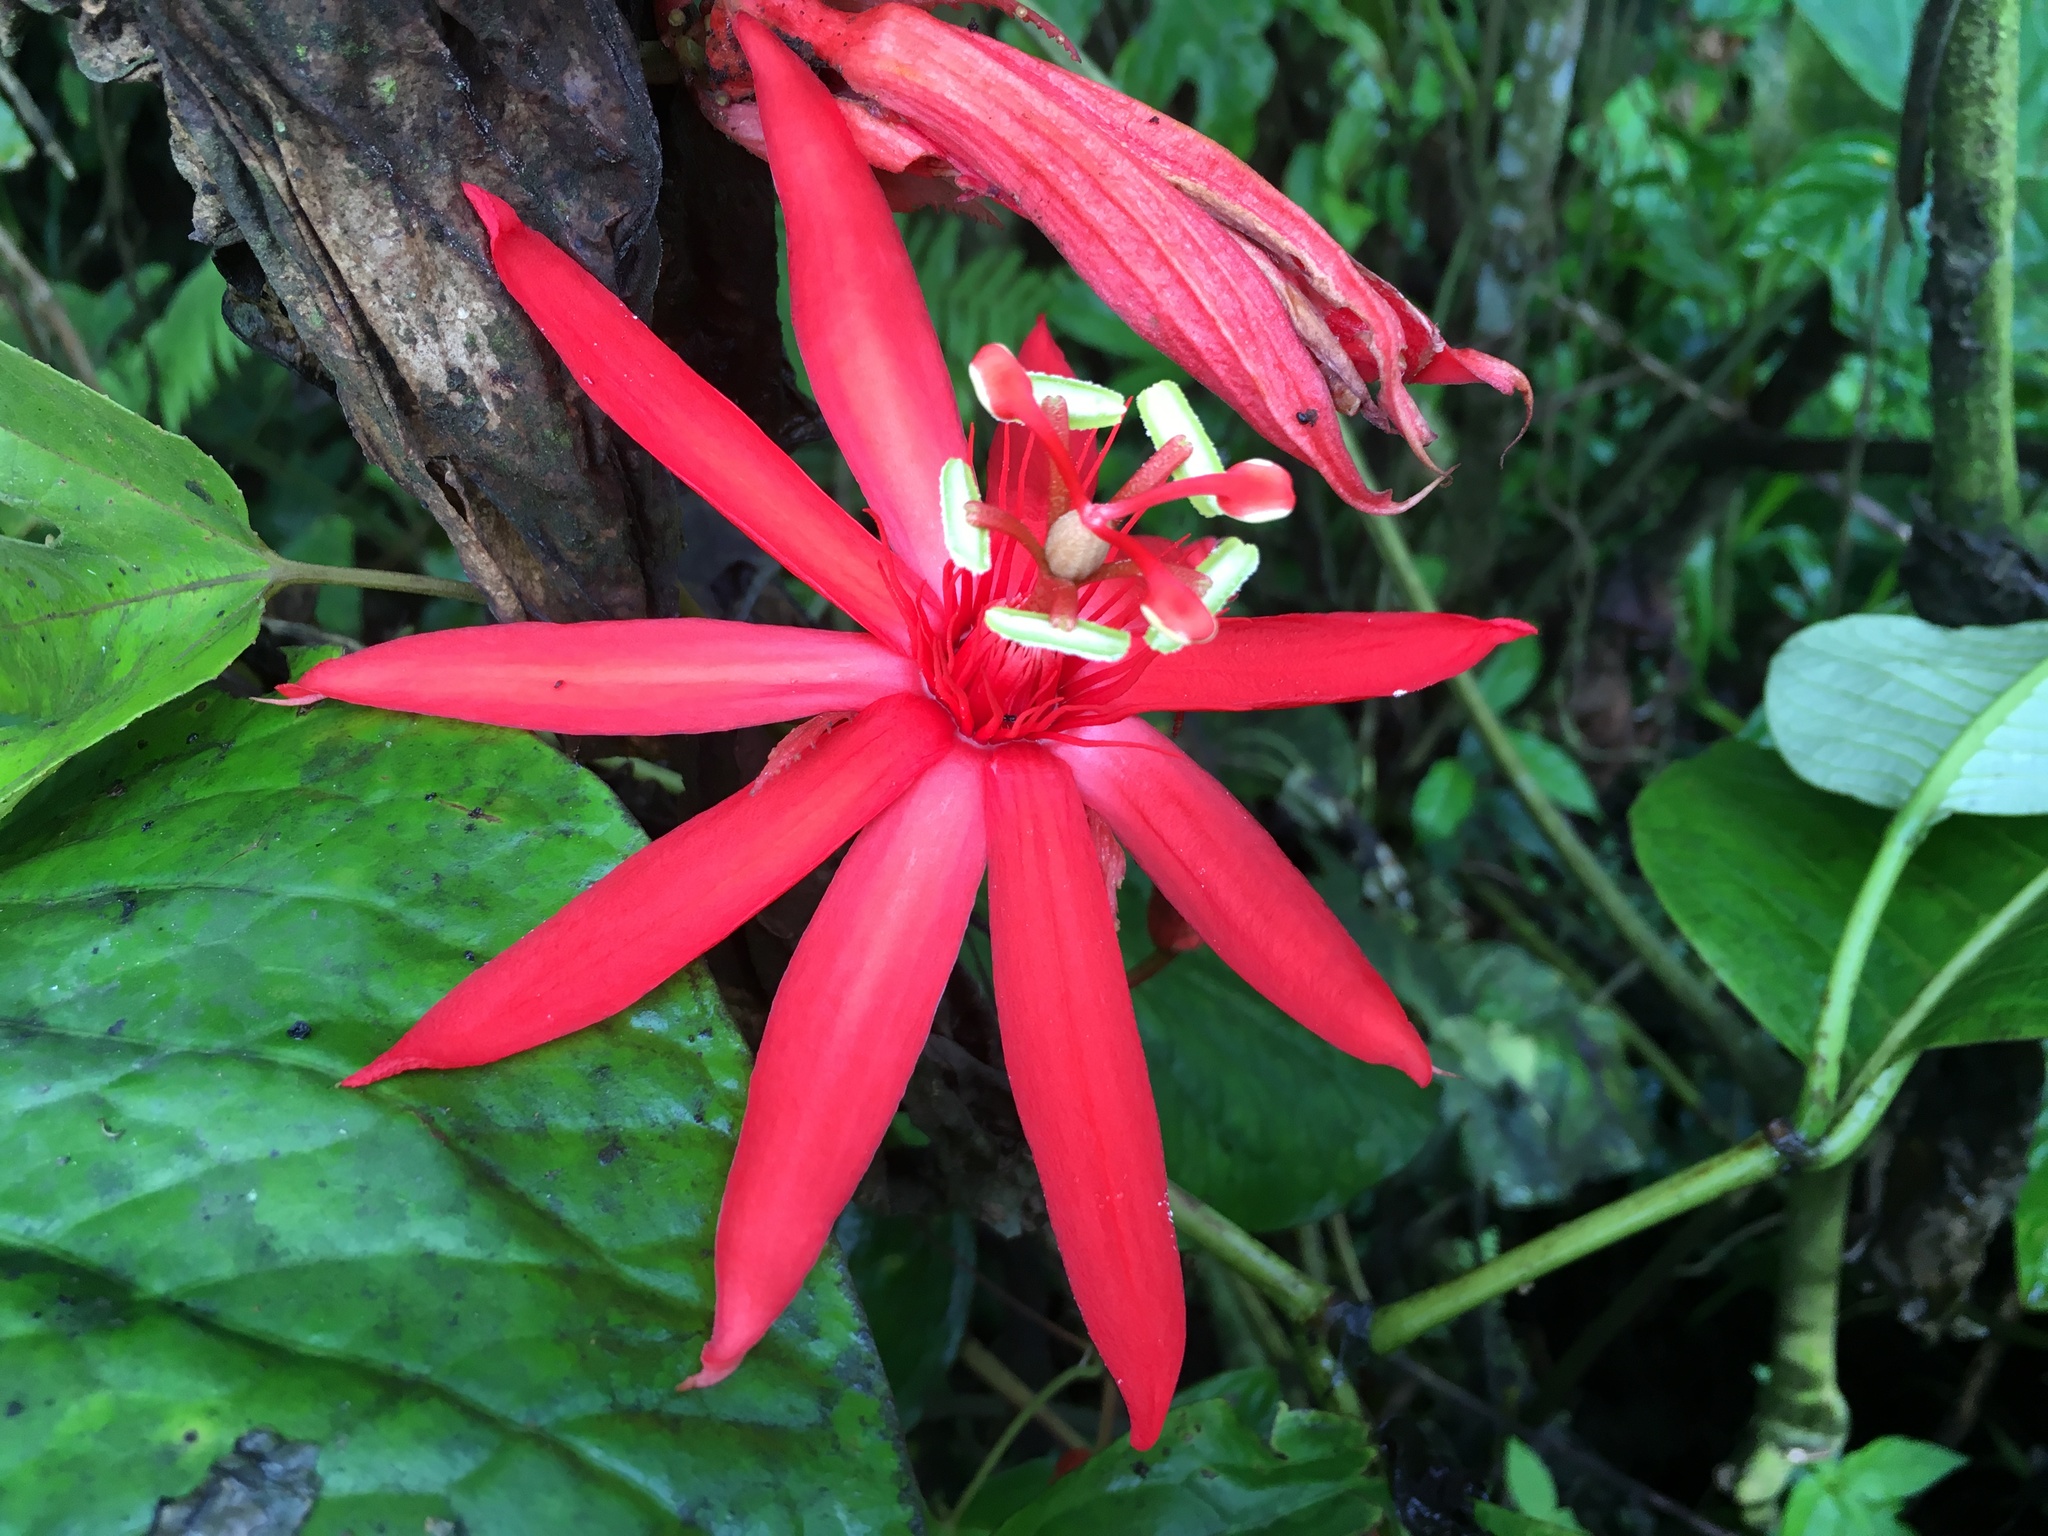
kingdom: Plantae
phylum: Tracheophyta
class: Magnoliopsida
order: Malpighiales
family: Passifloraceae
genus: Passiflora
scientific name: Passiflora vitifolia
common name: Perfumed passionflower
